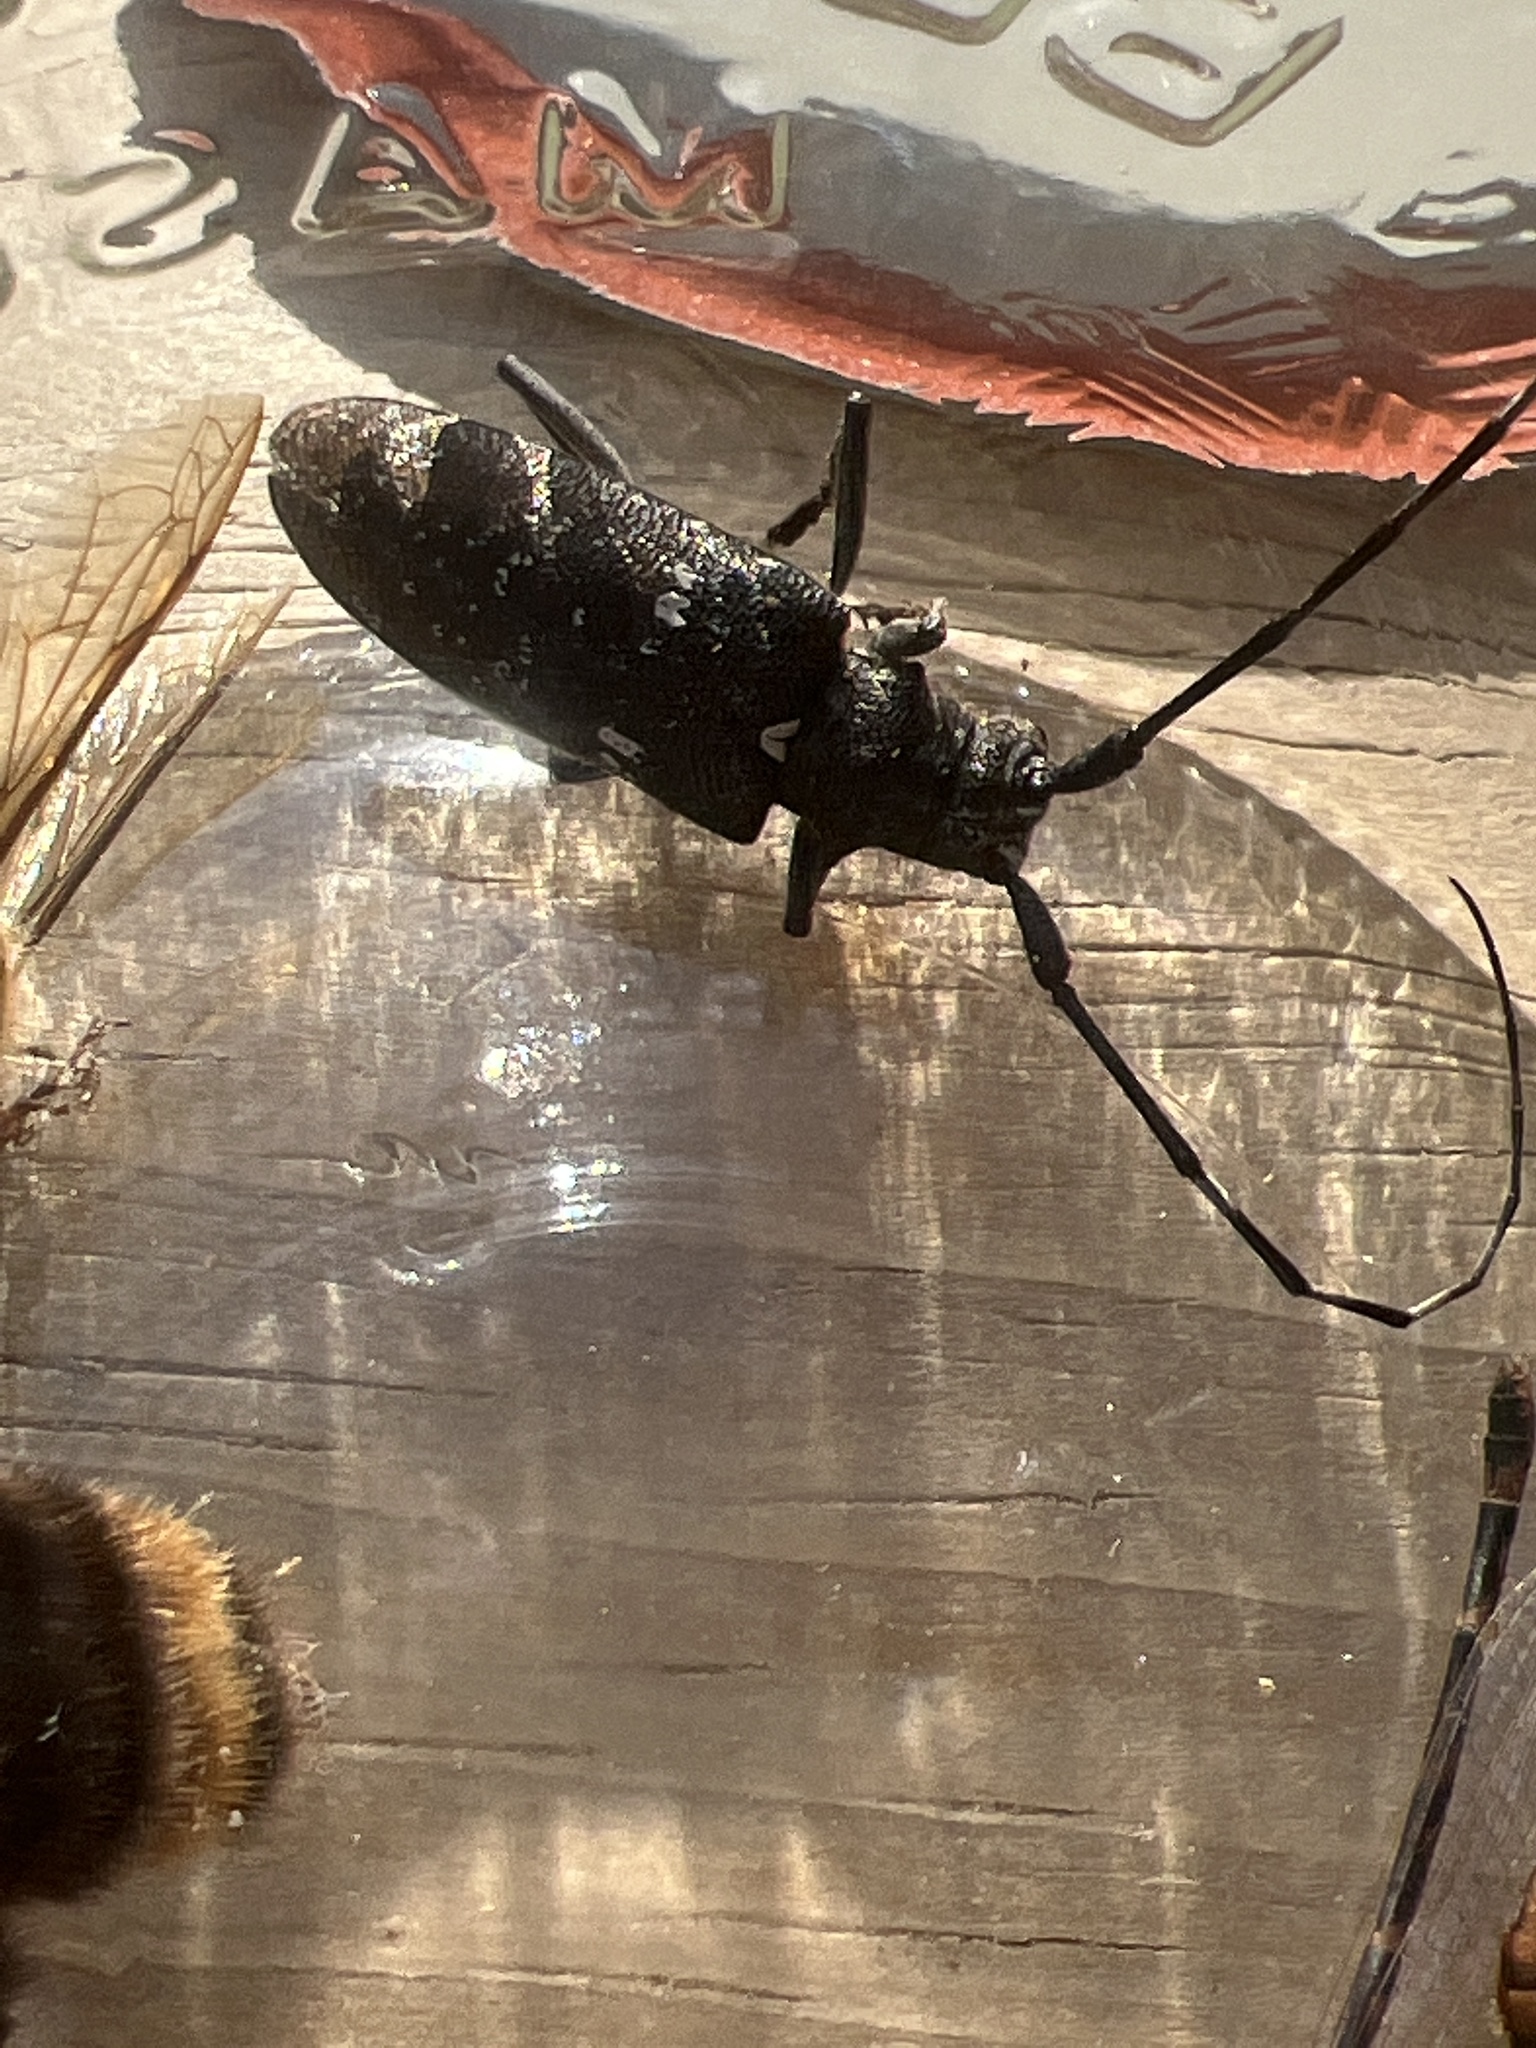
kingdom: Animalia
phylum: Arthropoda
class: Insecta
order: Coleoptera
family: Cerambycidae
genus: Monochamus
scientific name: Monochamus scutellatus
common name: White-spotted sawyer beetle
